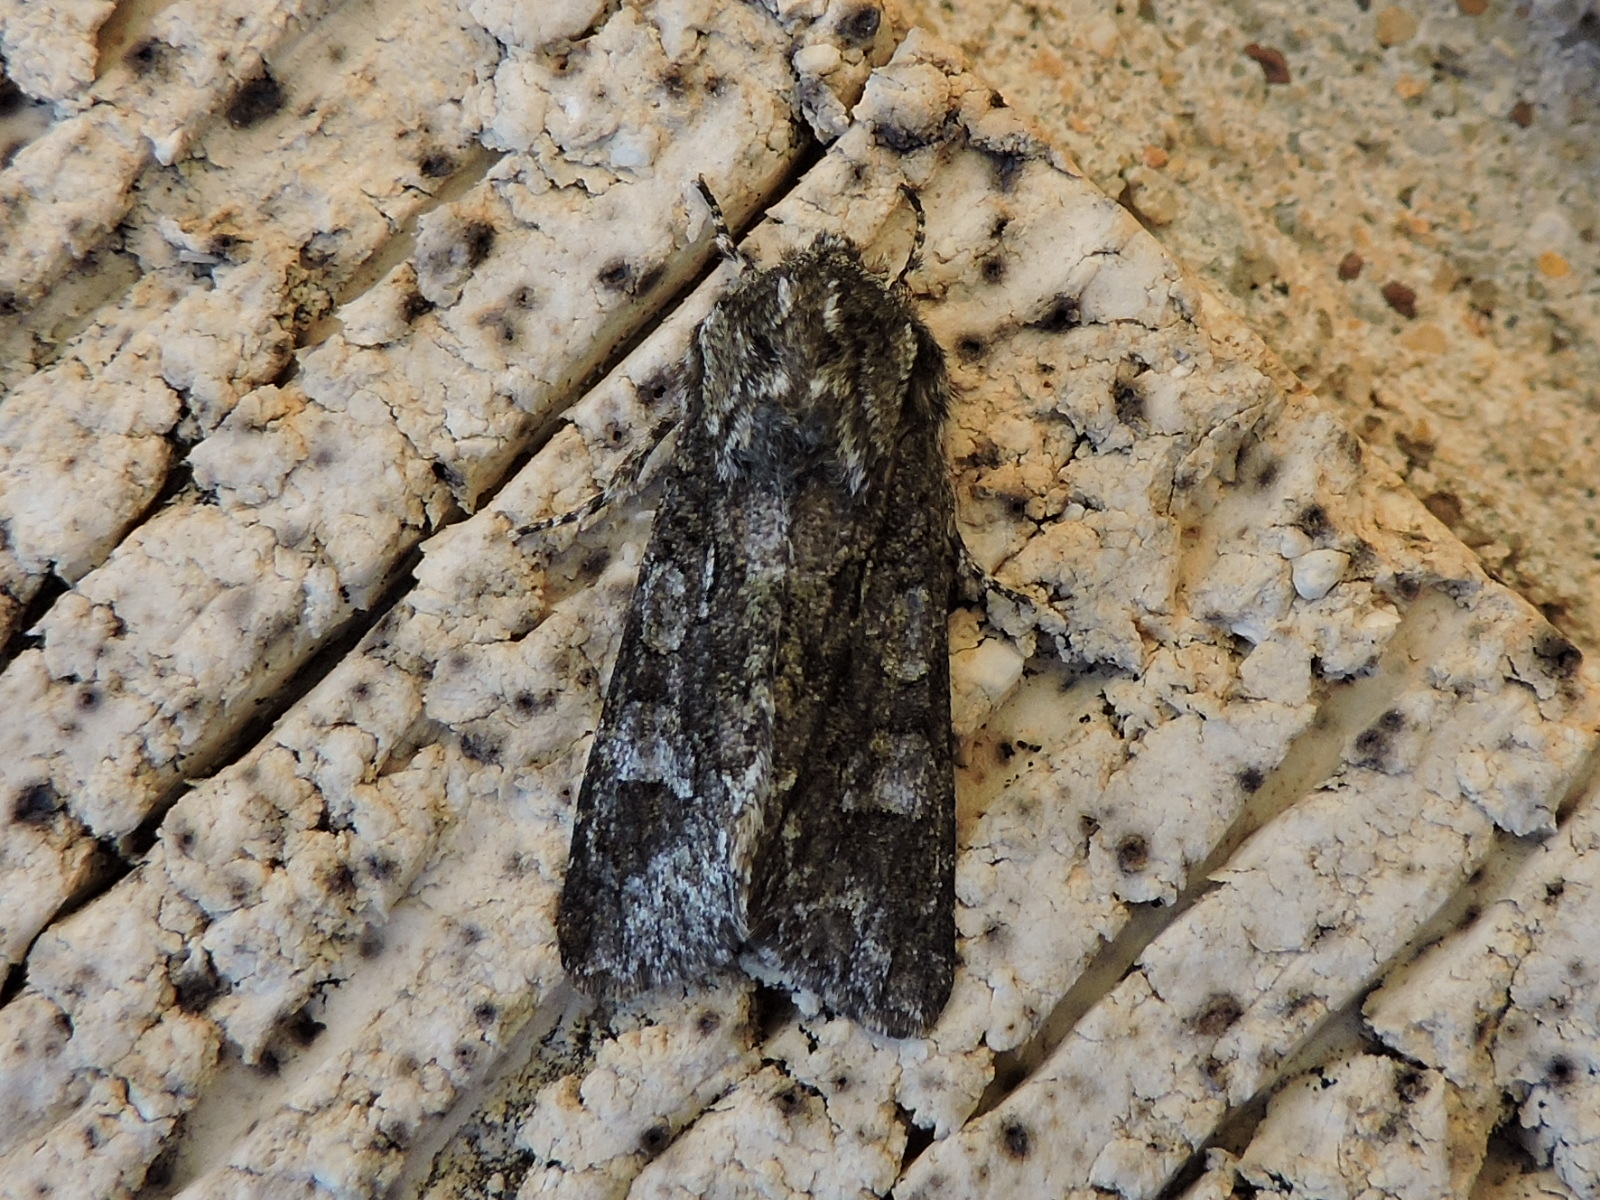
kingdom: Animalia
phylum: Arthropoda
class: Insecta
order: Lepidoptera
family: Noctuidae
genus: Psaphida
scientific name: Psaphida resumens
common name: Figure-eight sallow
